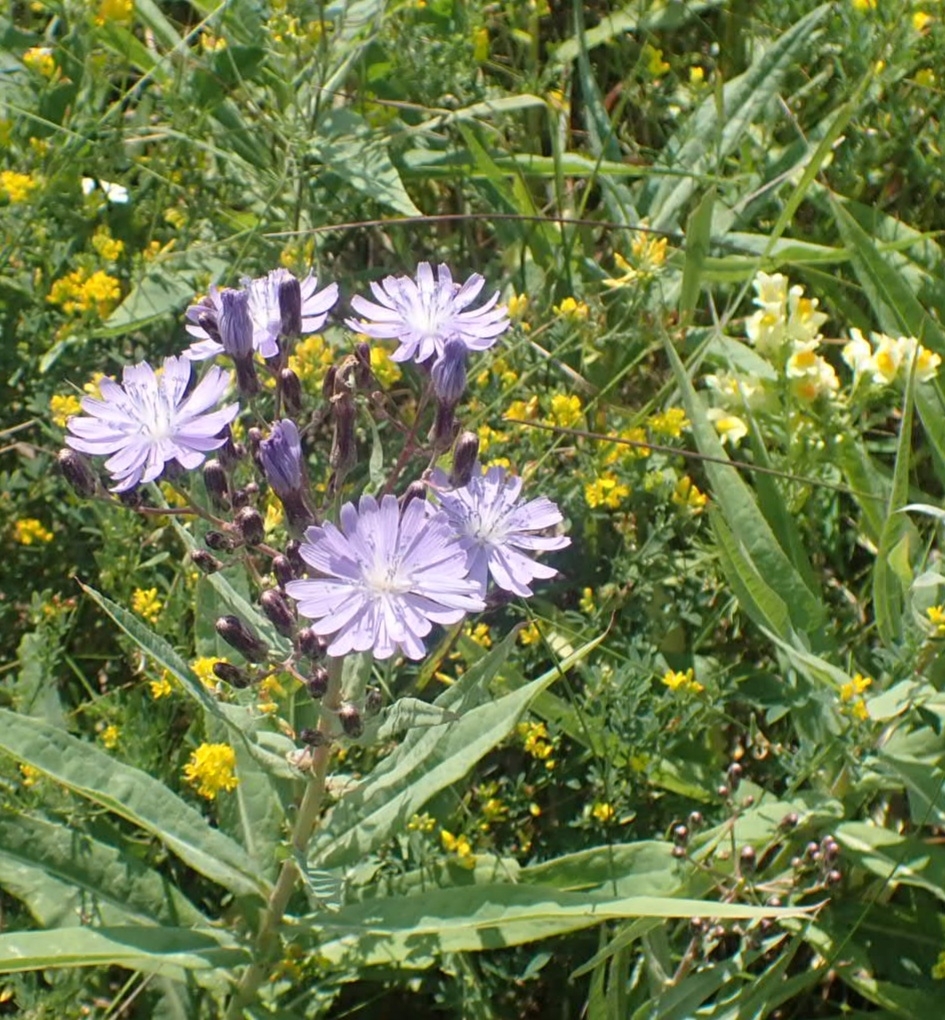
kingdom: Plantae
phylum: Tracheophyta
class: Magnoliopsida
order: Asterales
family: Asteraceae
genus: Lactuca
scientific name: Lactuca sibirica
